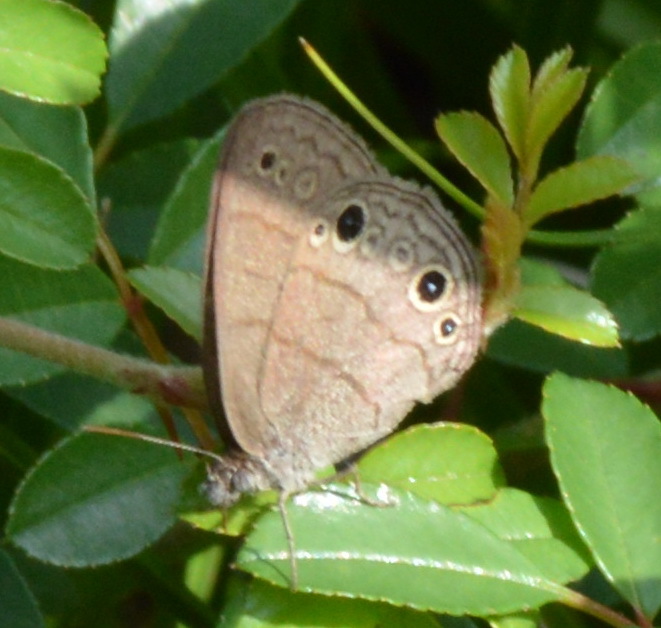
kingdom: Animalia
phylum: Arthropoda
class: Insecta
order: Lepidoptera
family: Nymphalidae
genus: Hermeuptychia
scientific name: Hermeuptychia hermes
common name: Hermes satyr
